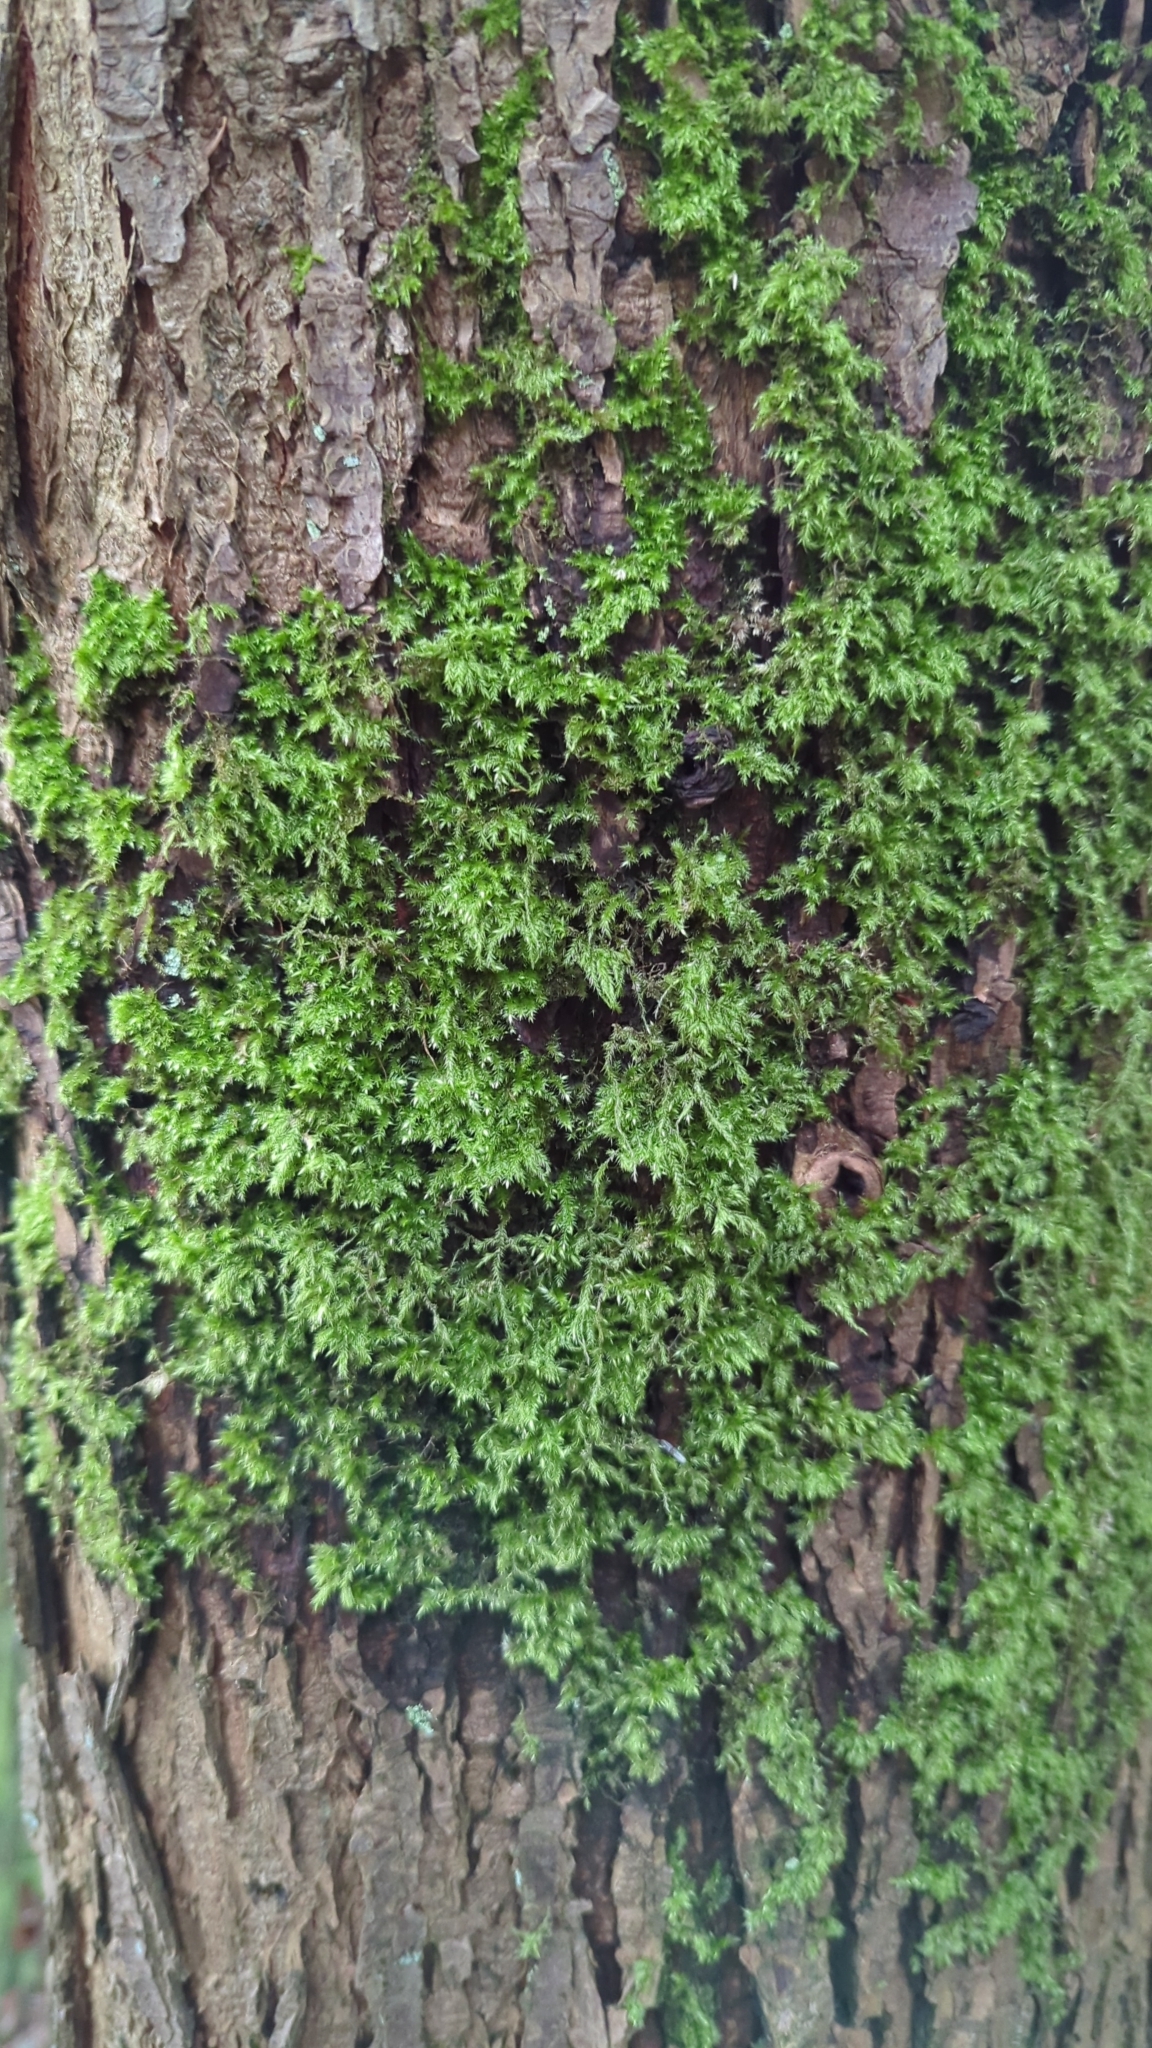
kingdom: Plantae
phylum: Bryophyta
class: Bryopsida
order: Hypnales
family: Lembophyllaceae
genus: Pseudisothecium
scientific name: Pseudisothecium stoloniferum
